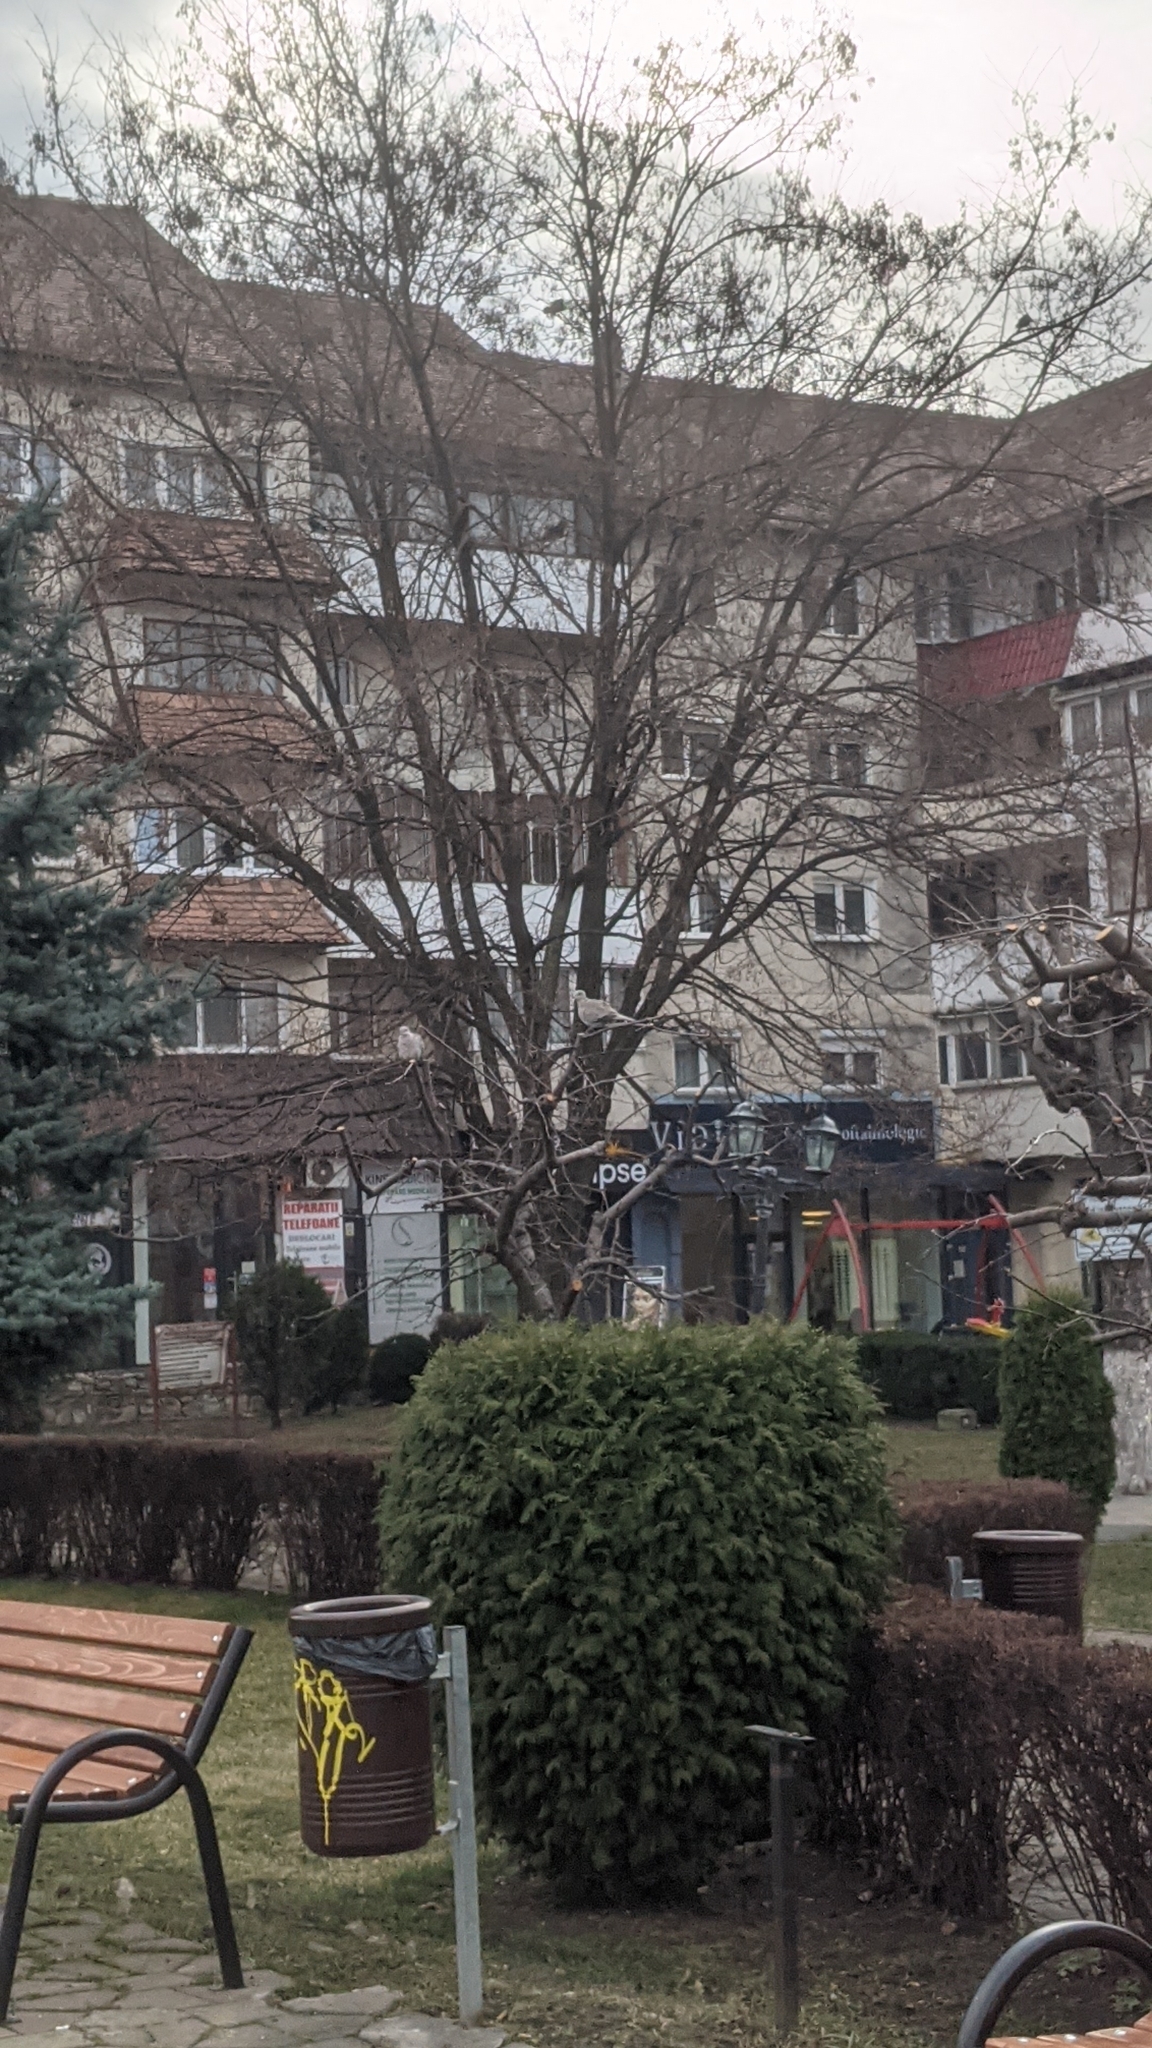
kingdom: Animalia
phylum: Chordata
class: Aves
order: Columbiformes
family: Columbidae
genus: Streptopelia
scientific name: Streptopelia decaocto
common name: Eurasian collared dove
